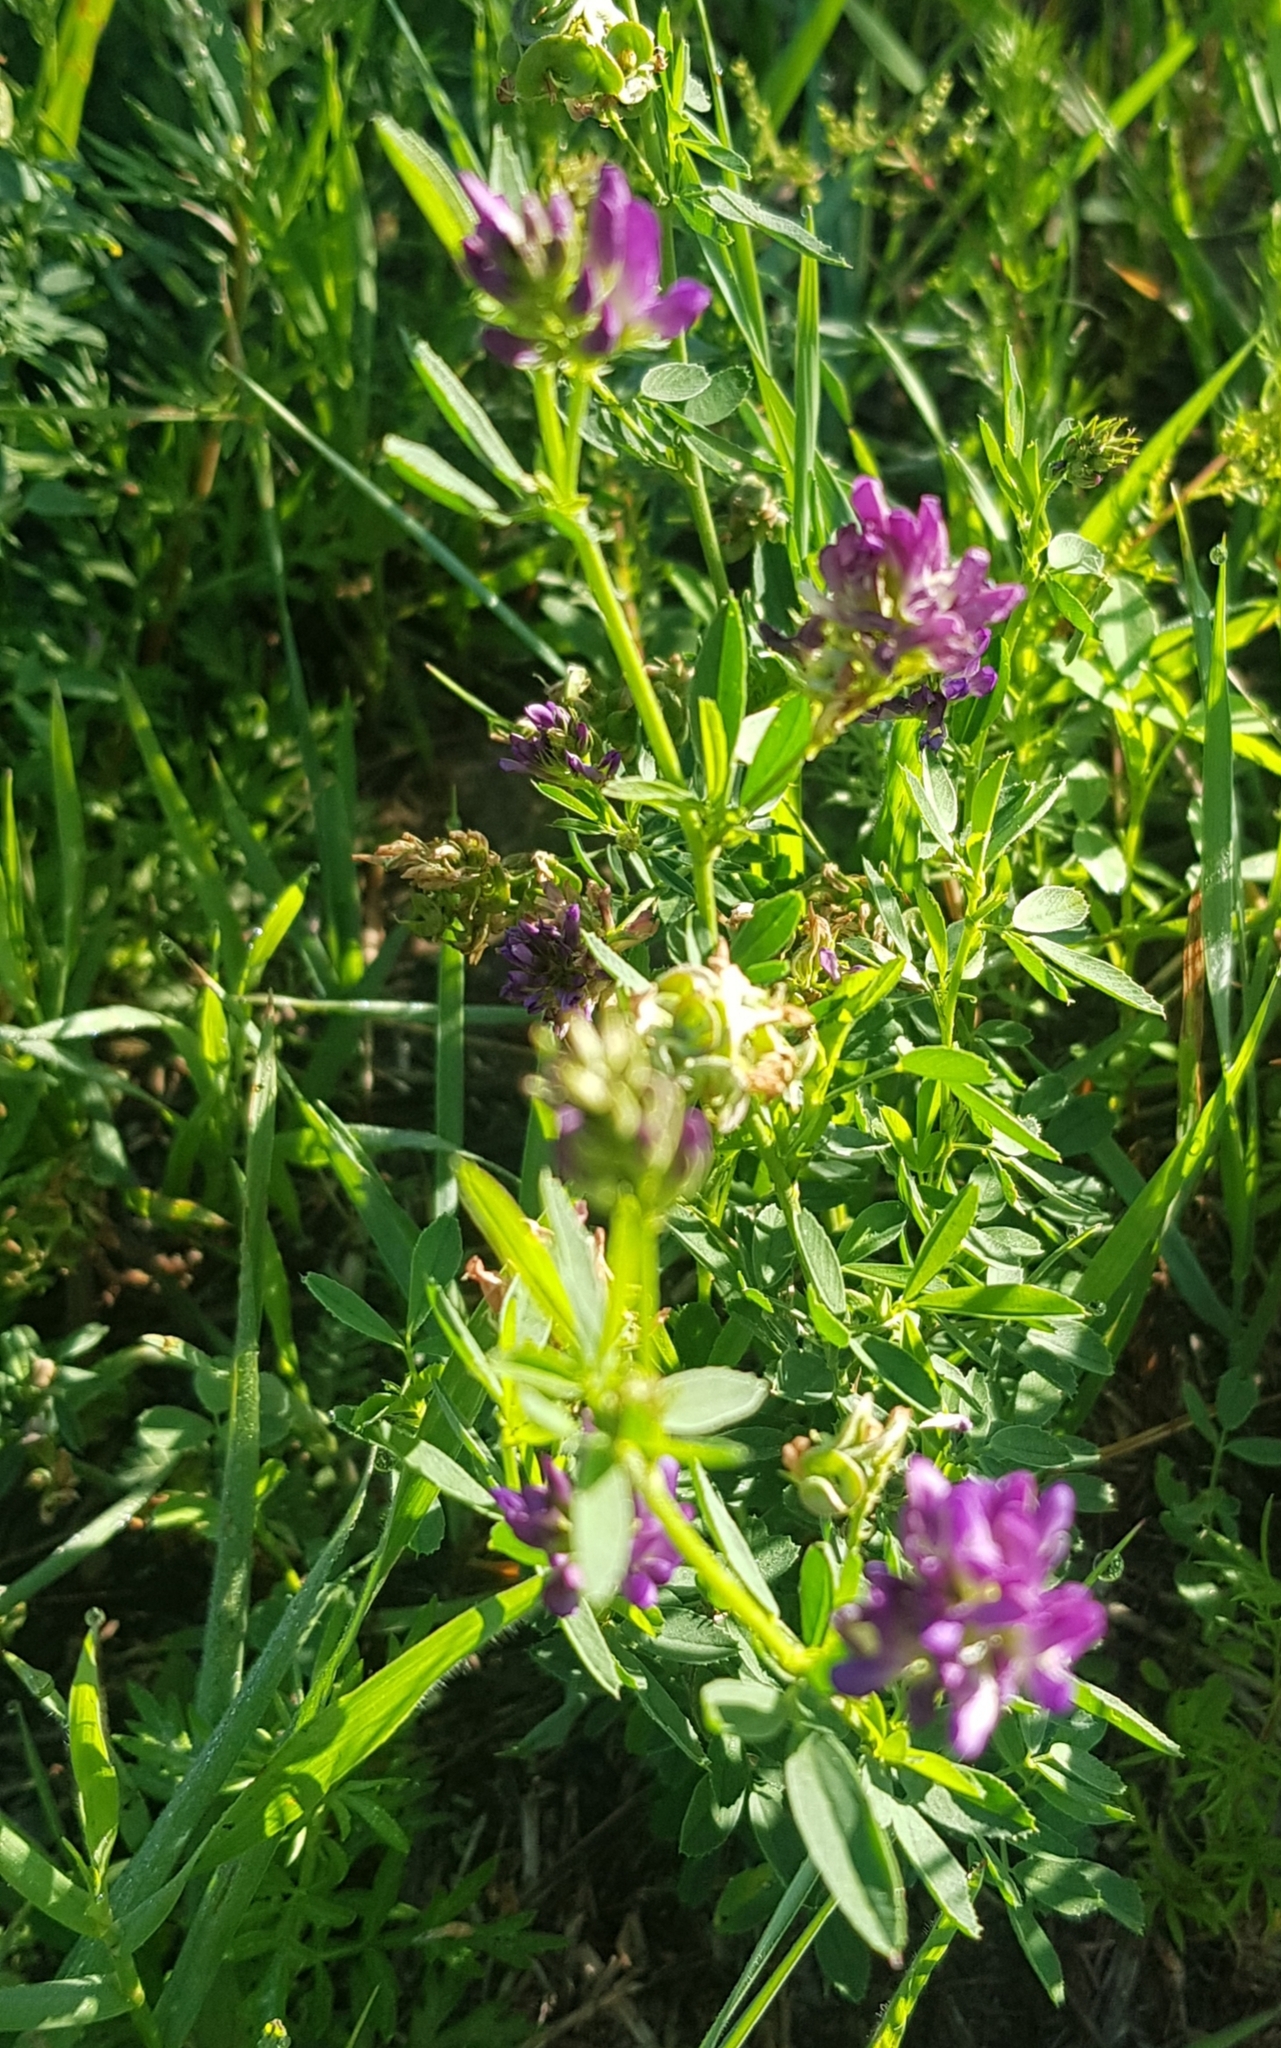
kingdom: Plantae
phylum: Tracheophyta
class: Magnoliopsida
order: Fabales
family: Fabaceae
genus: Trifolium
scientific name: Trifolium lupinaster
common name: Lupine clover
